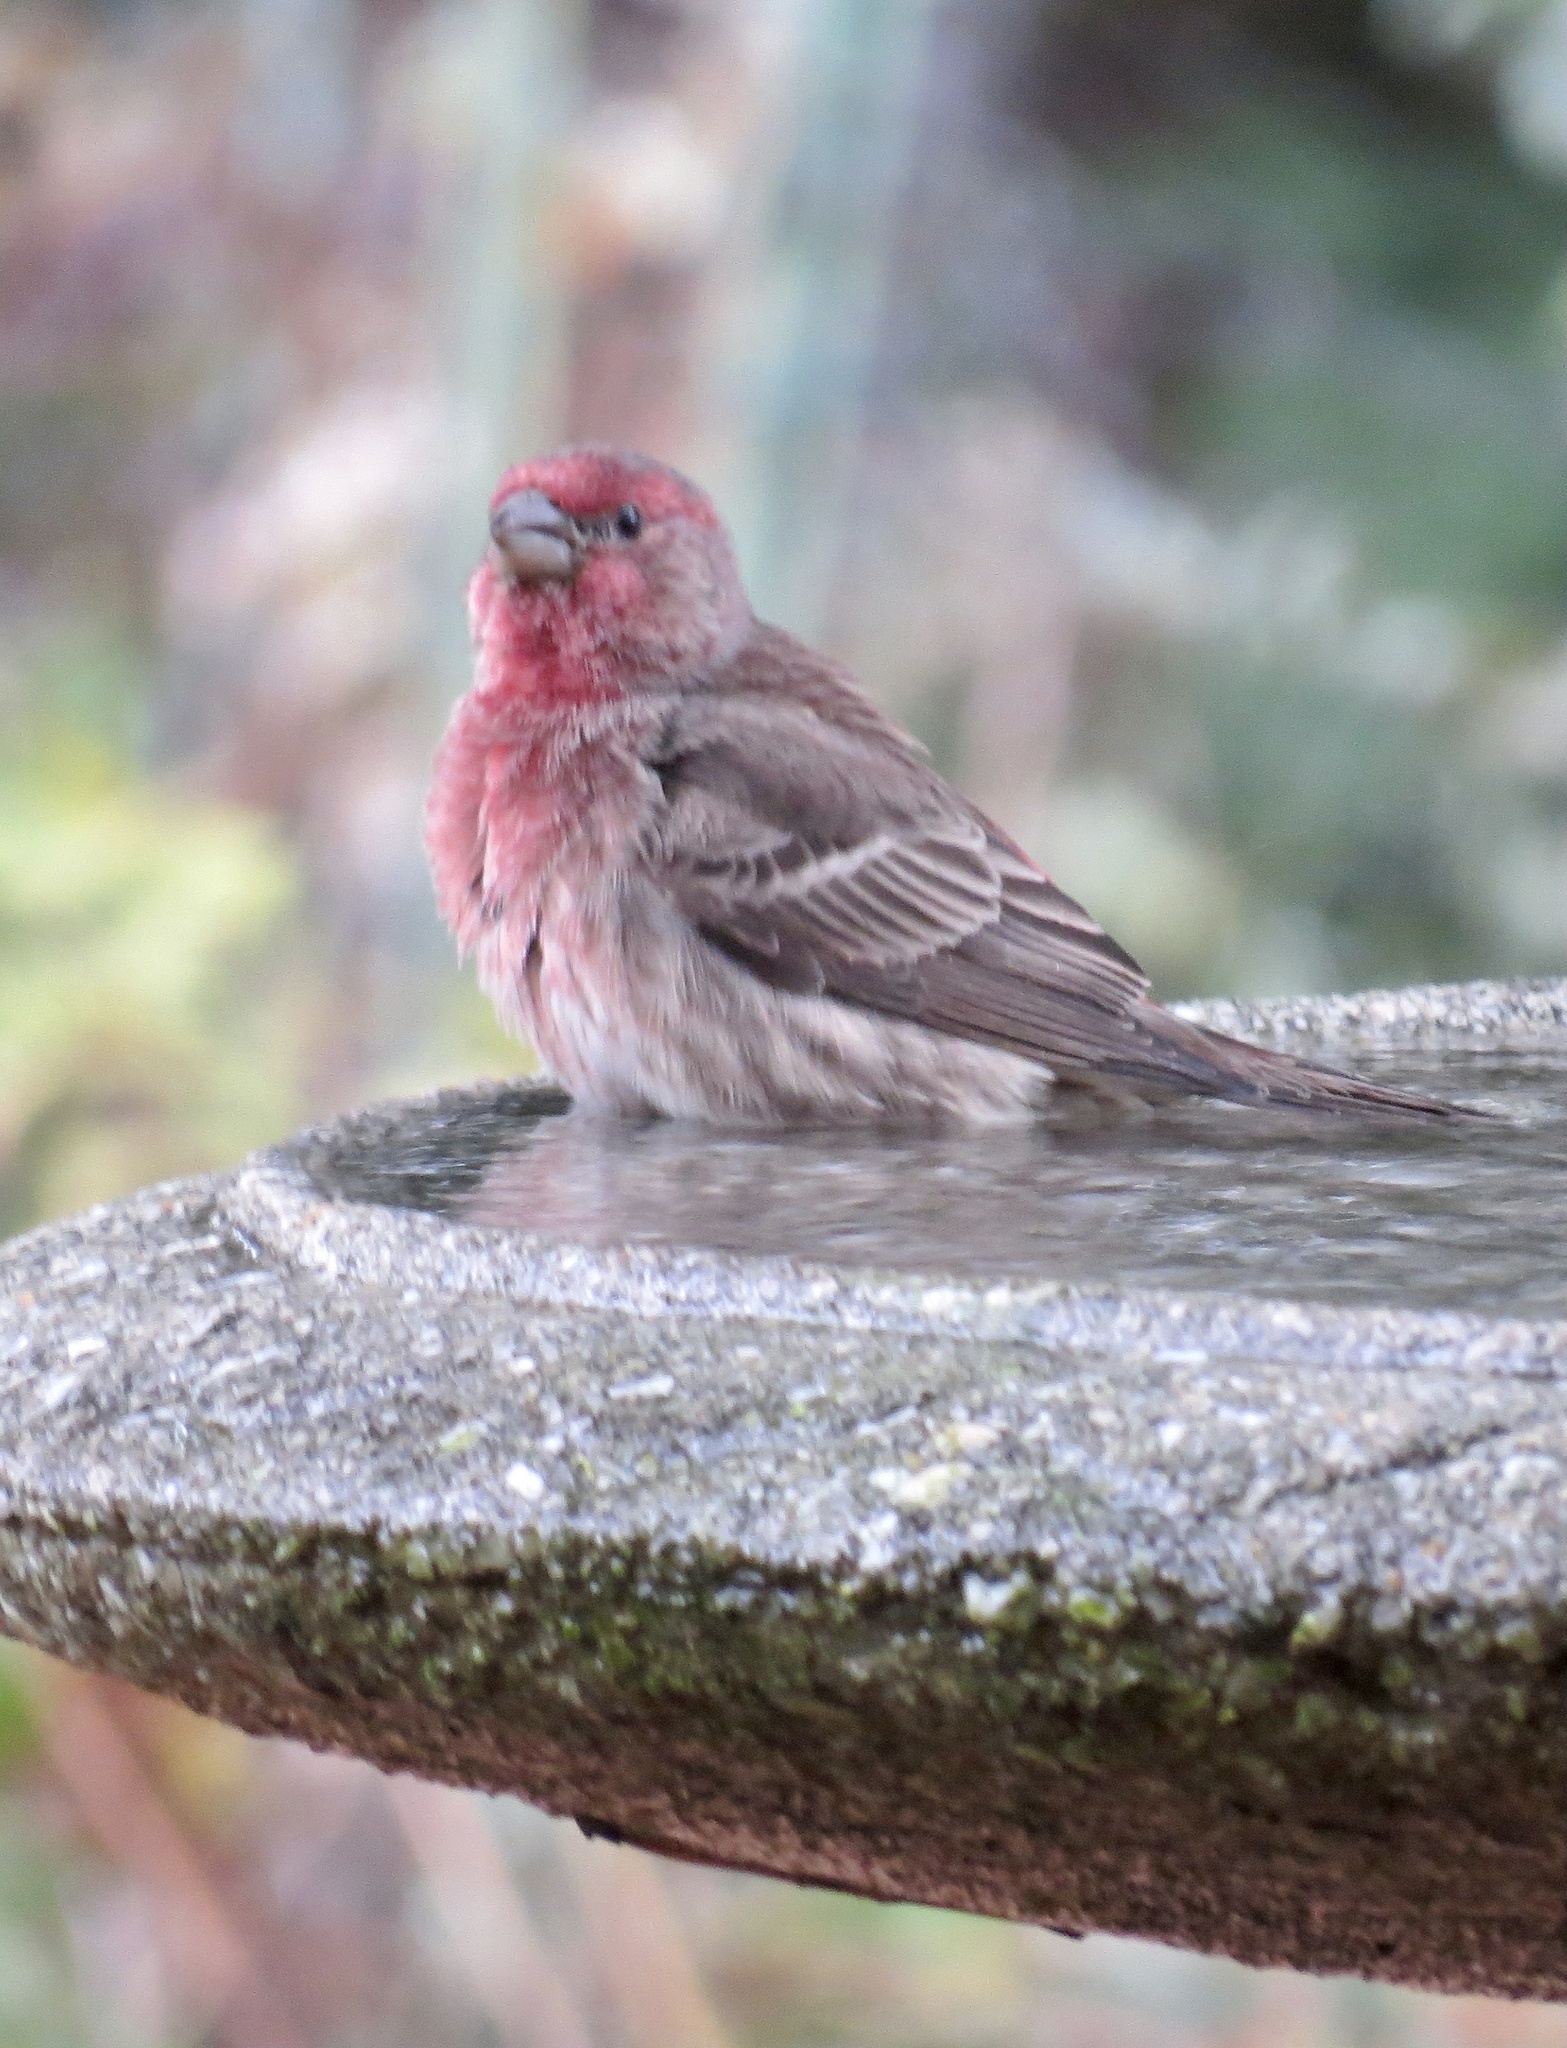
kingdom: Animalia
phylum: Chordata
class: Aves
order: Passeriformes
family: Fringillidae
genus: Haemorhous
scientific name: Haemorhous mexicanus
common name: House finch
